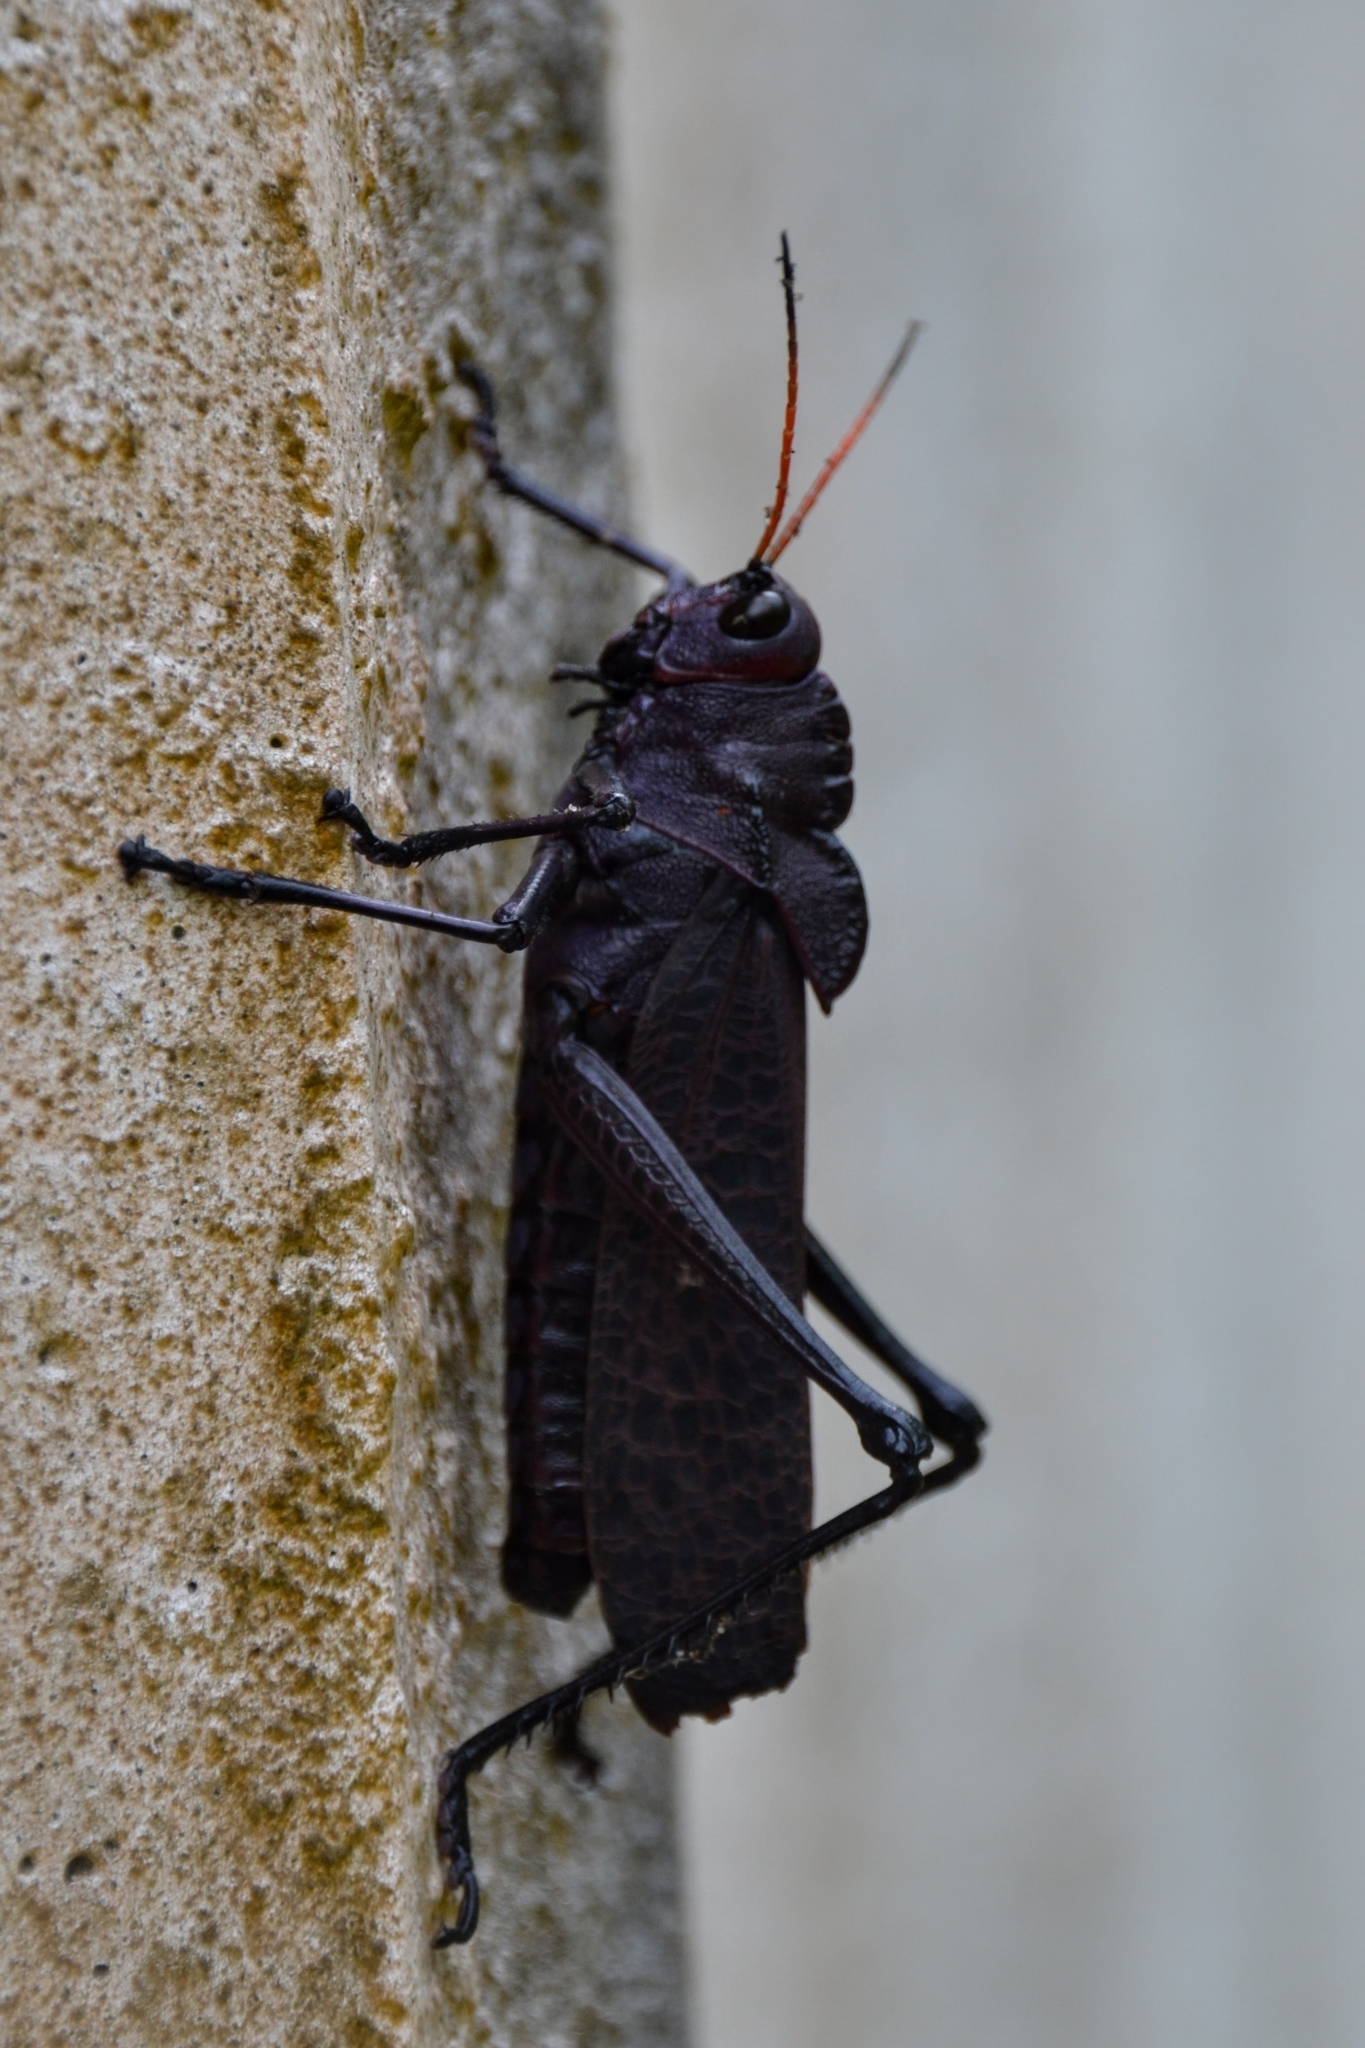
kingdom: Animalia
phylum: Arthropoda
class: Insecta
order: Orthoptera
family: Romaleidae
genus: Romalea
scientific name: Romalea
